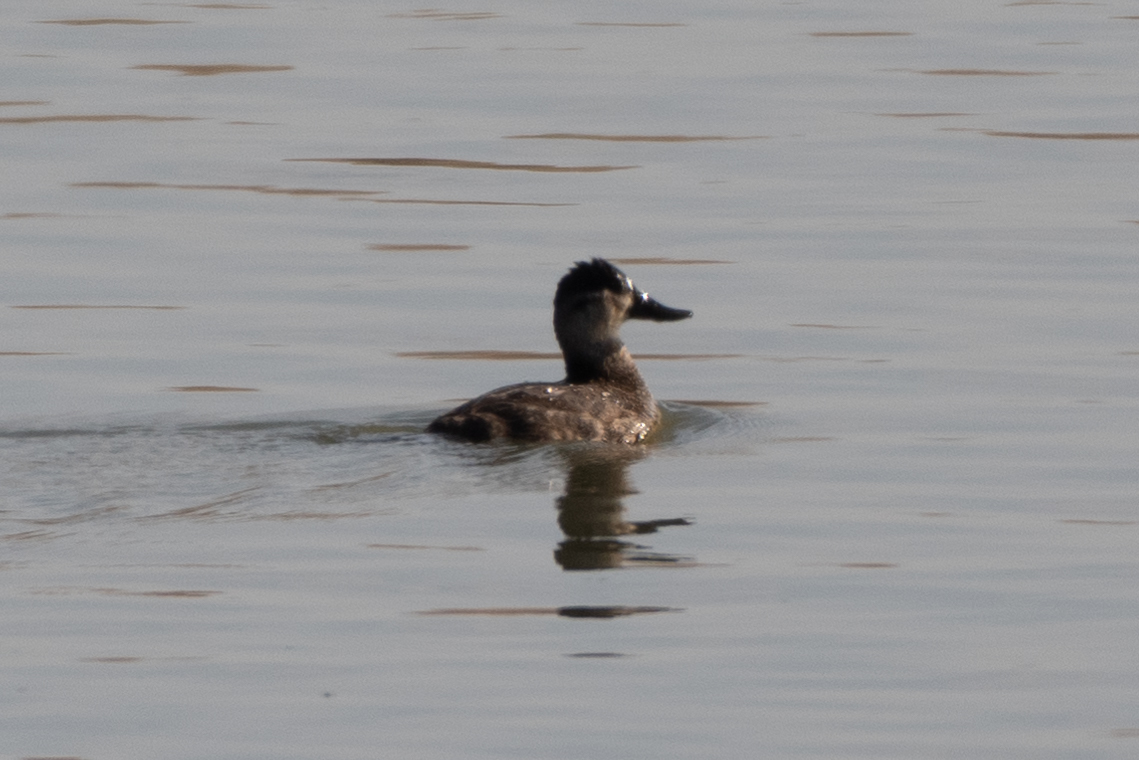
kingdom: Animalia
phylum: Chordata
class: Aves
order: Anseriformes
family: Anatidae
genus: Oxyura
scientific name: Oxyura jamaicensis
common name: Ruddy duck
